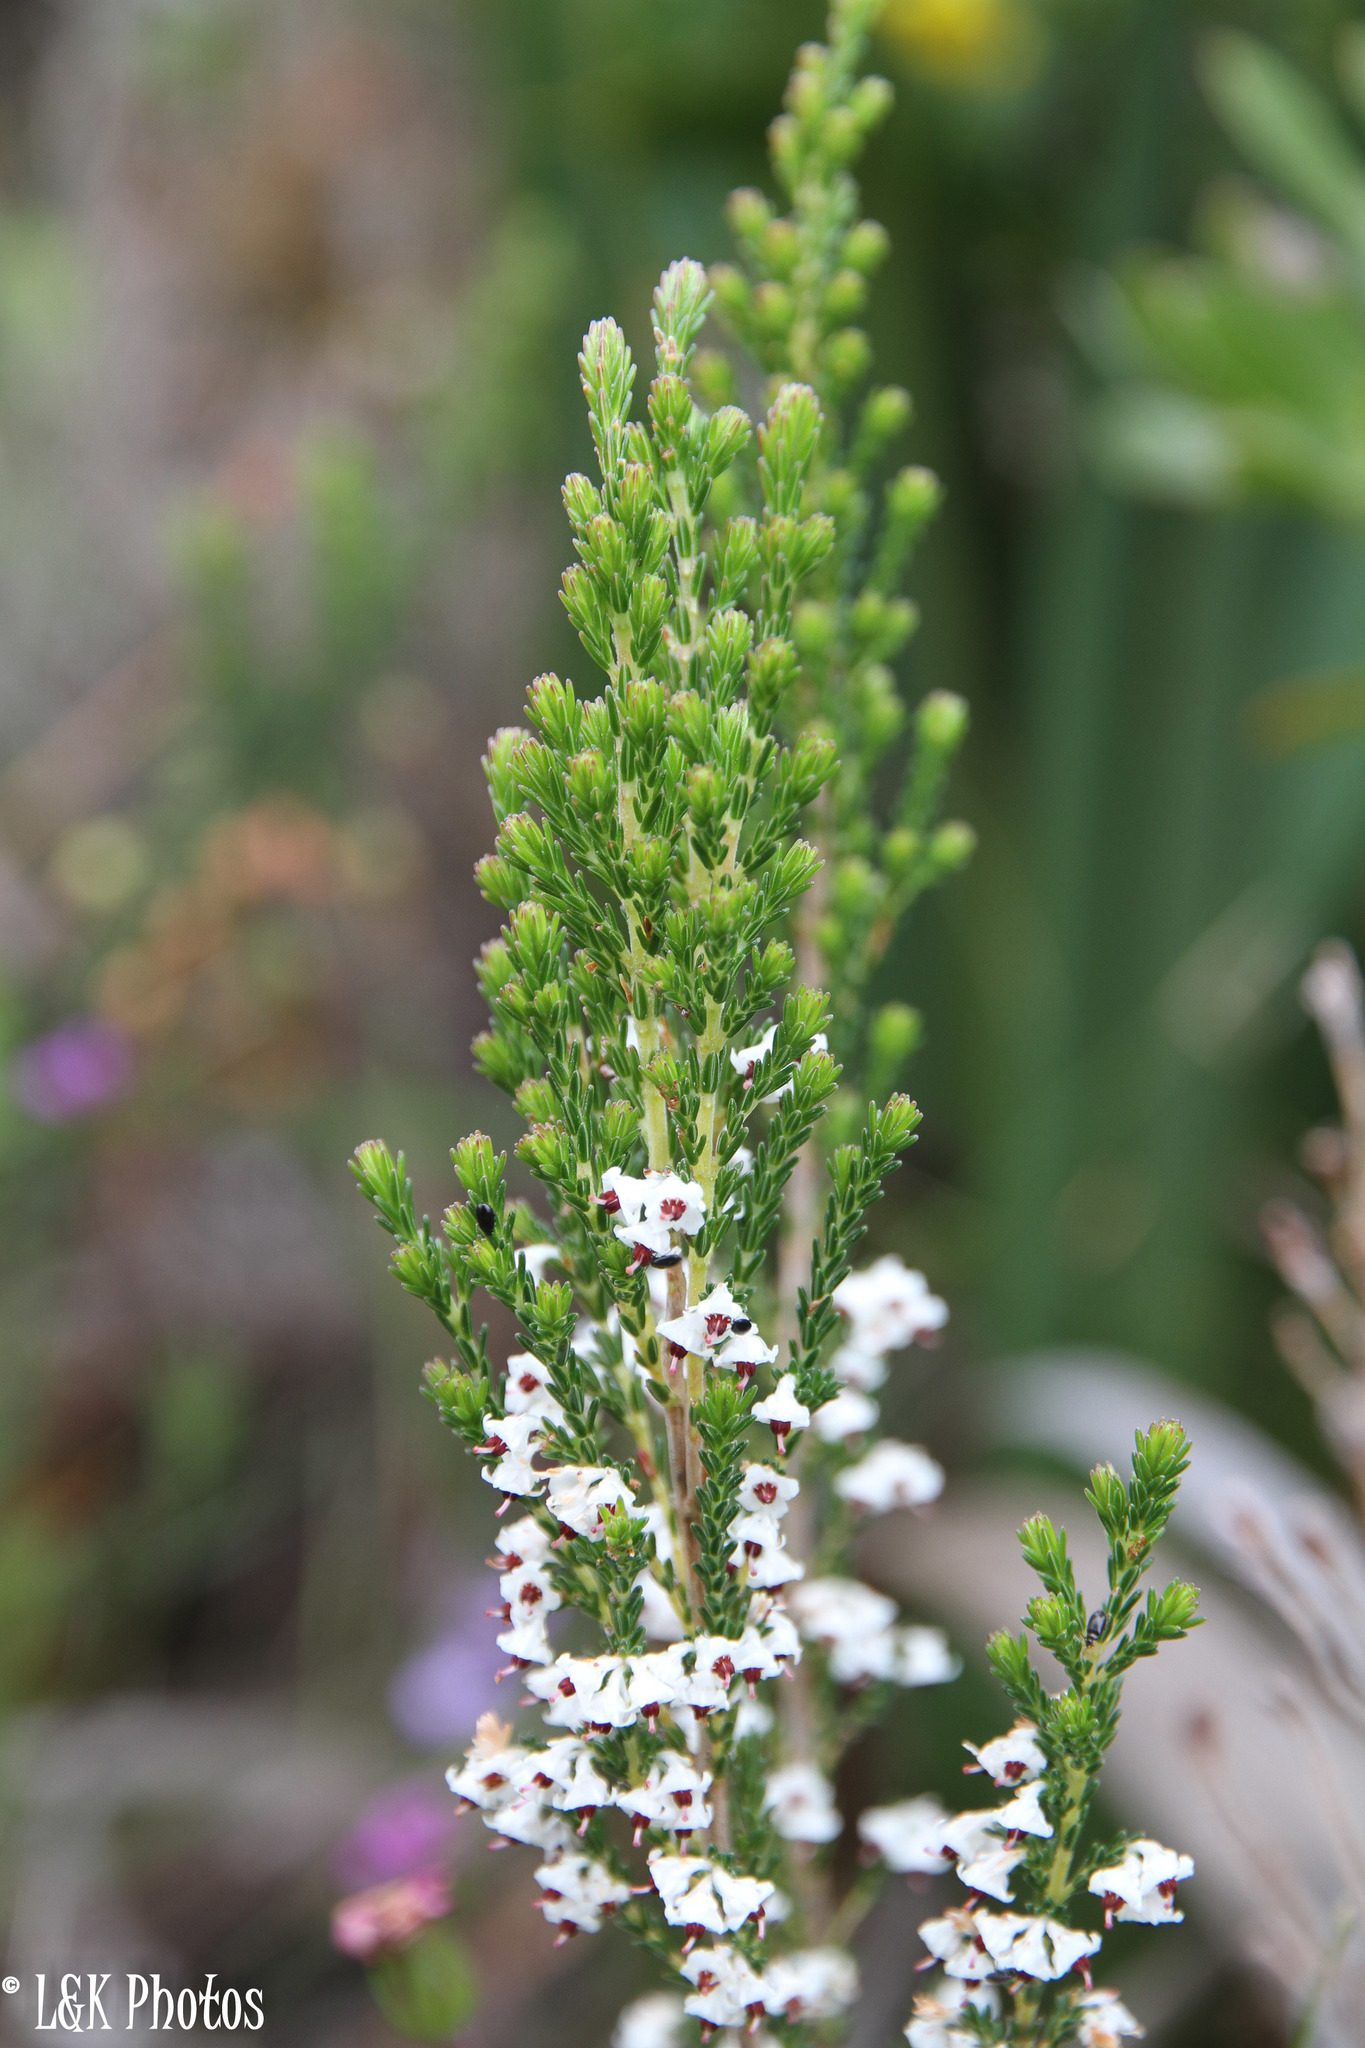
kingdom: Plantae
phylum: Tracheophyta
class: Magnoliopsida
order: Ericales
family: Ericaceae
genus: Erica
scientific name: Erica calycina
